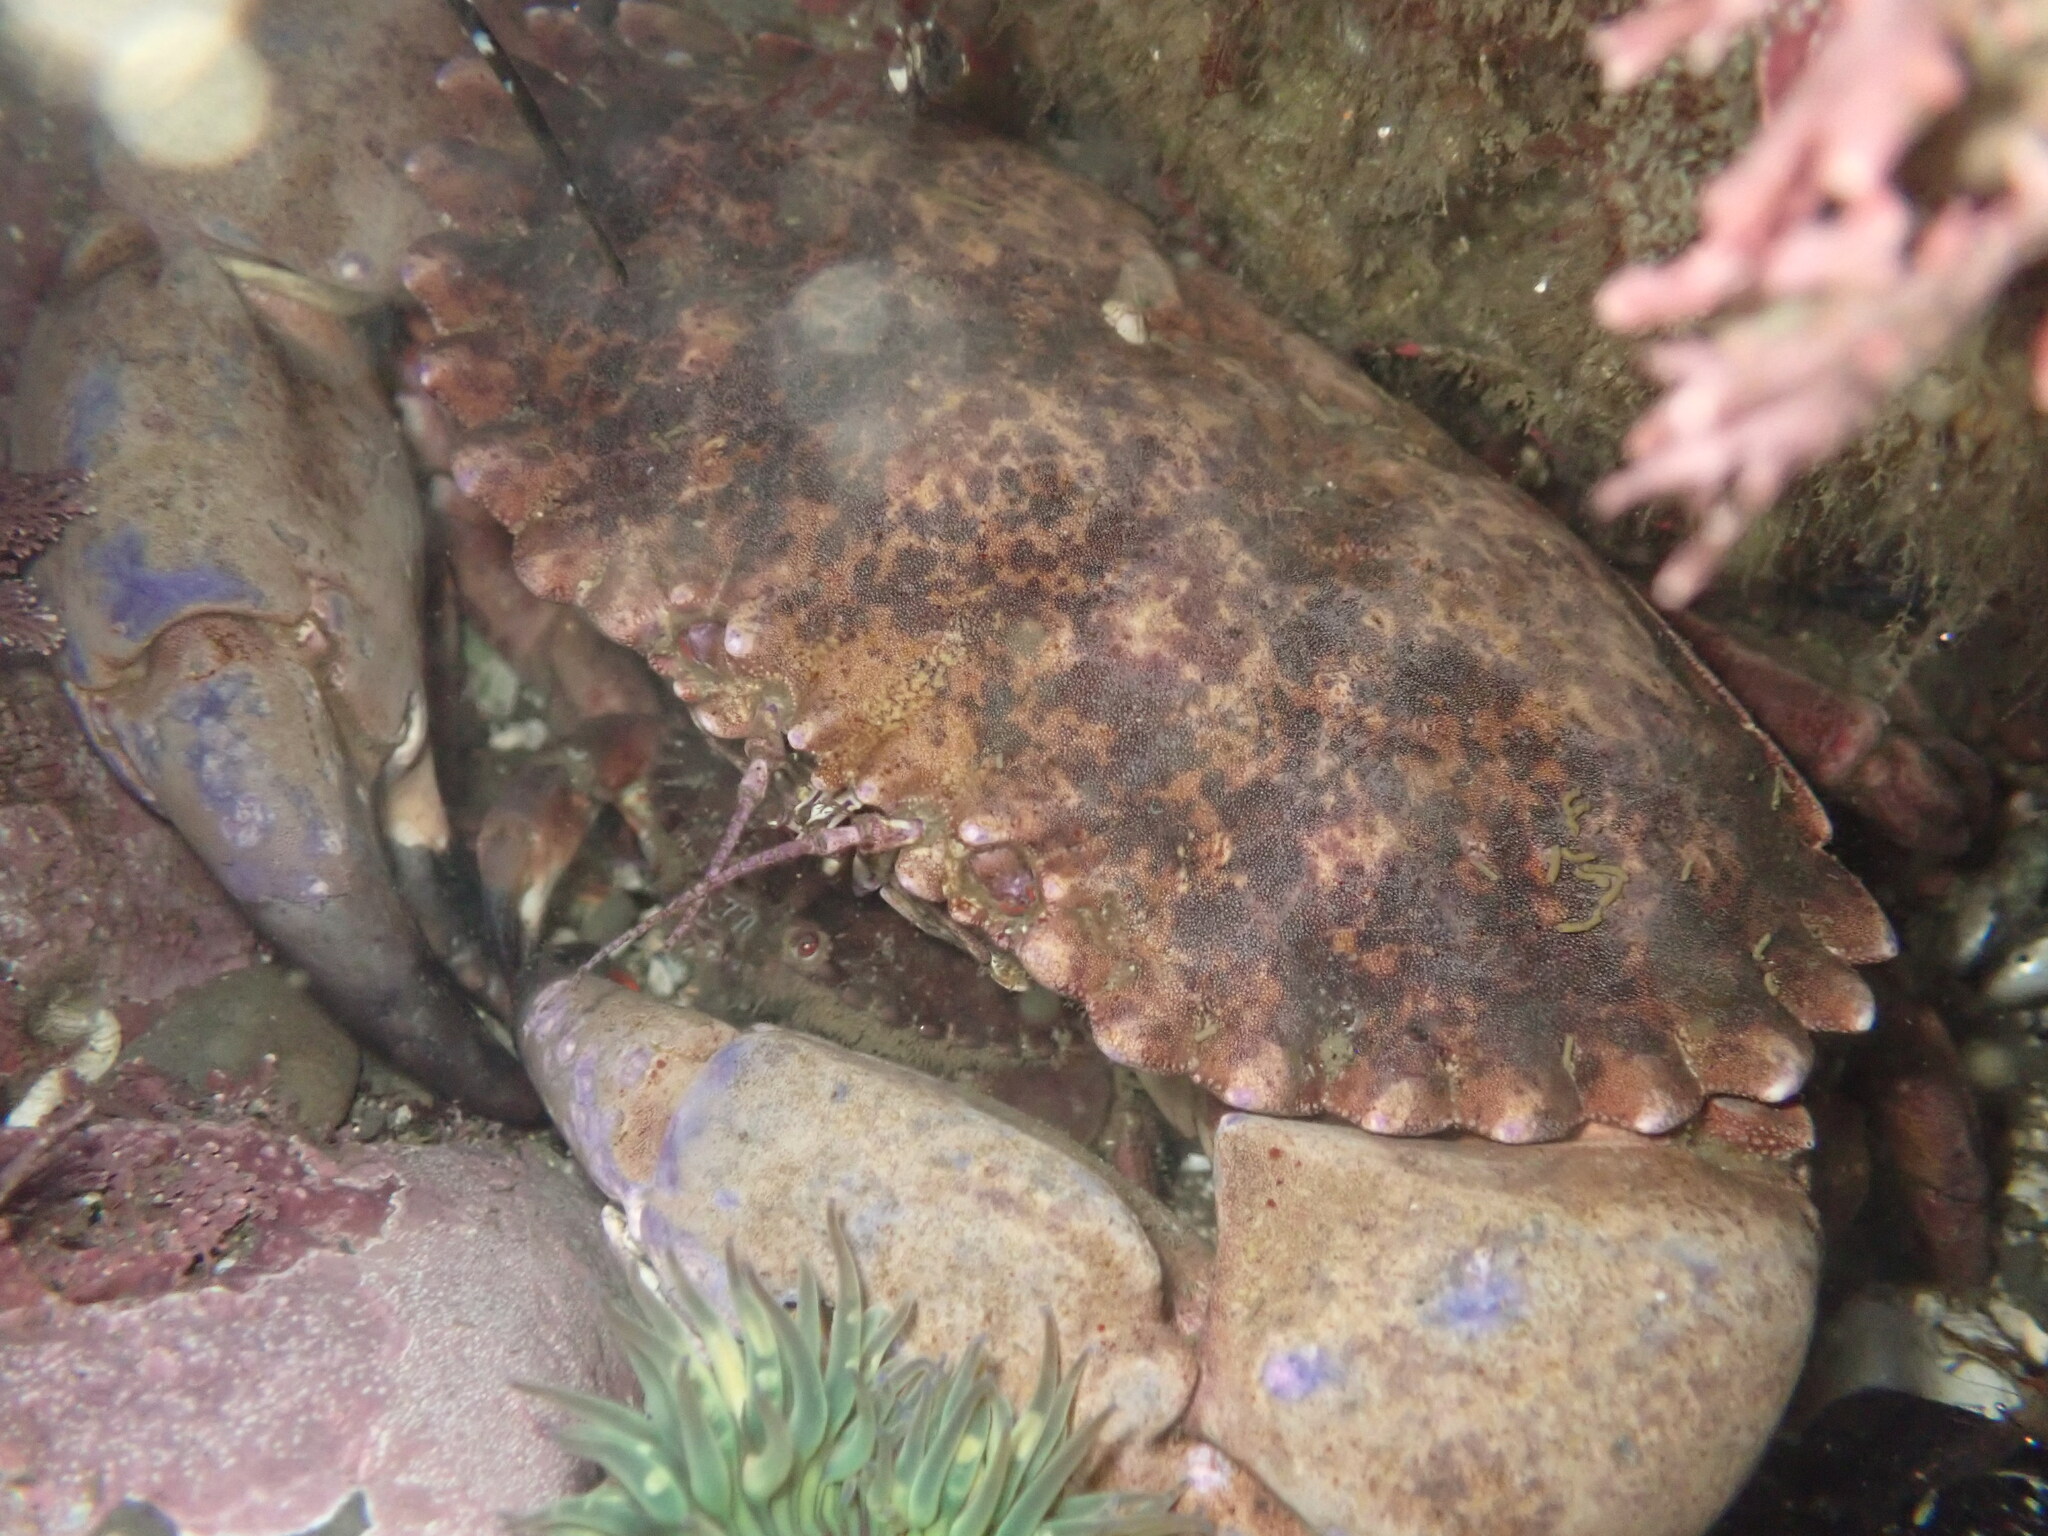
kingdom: Animalia
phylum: Arthropoda
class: Malacostraca
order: Decapoda
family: Cancridae
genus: Romaleon
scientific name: Romaleon antennarium
